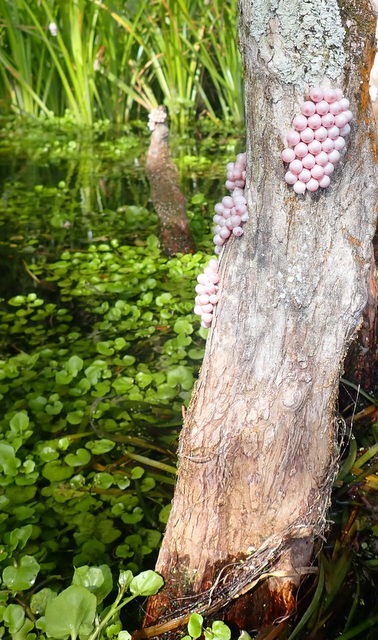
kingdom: Animalia
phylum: Mollusca
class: Gastropoda
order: Architaenioglossa
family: Ampullariidae
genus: Pomacea
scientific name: Pomacea paludosa
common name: Florida applesnail
